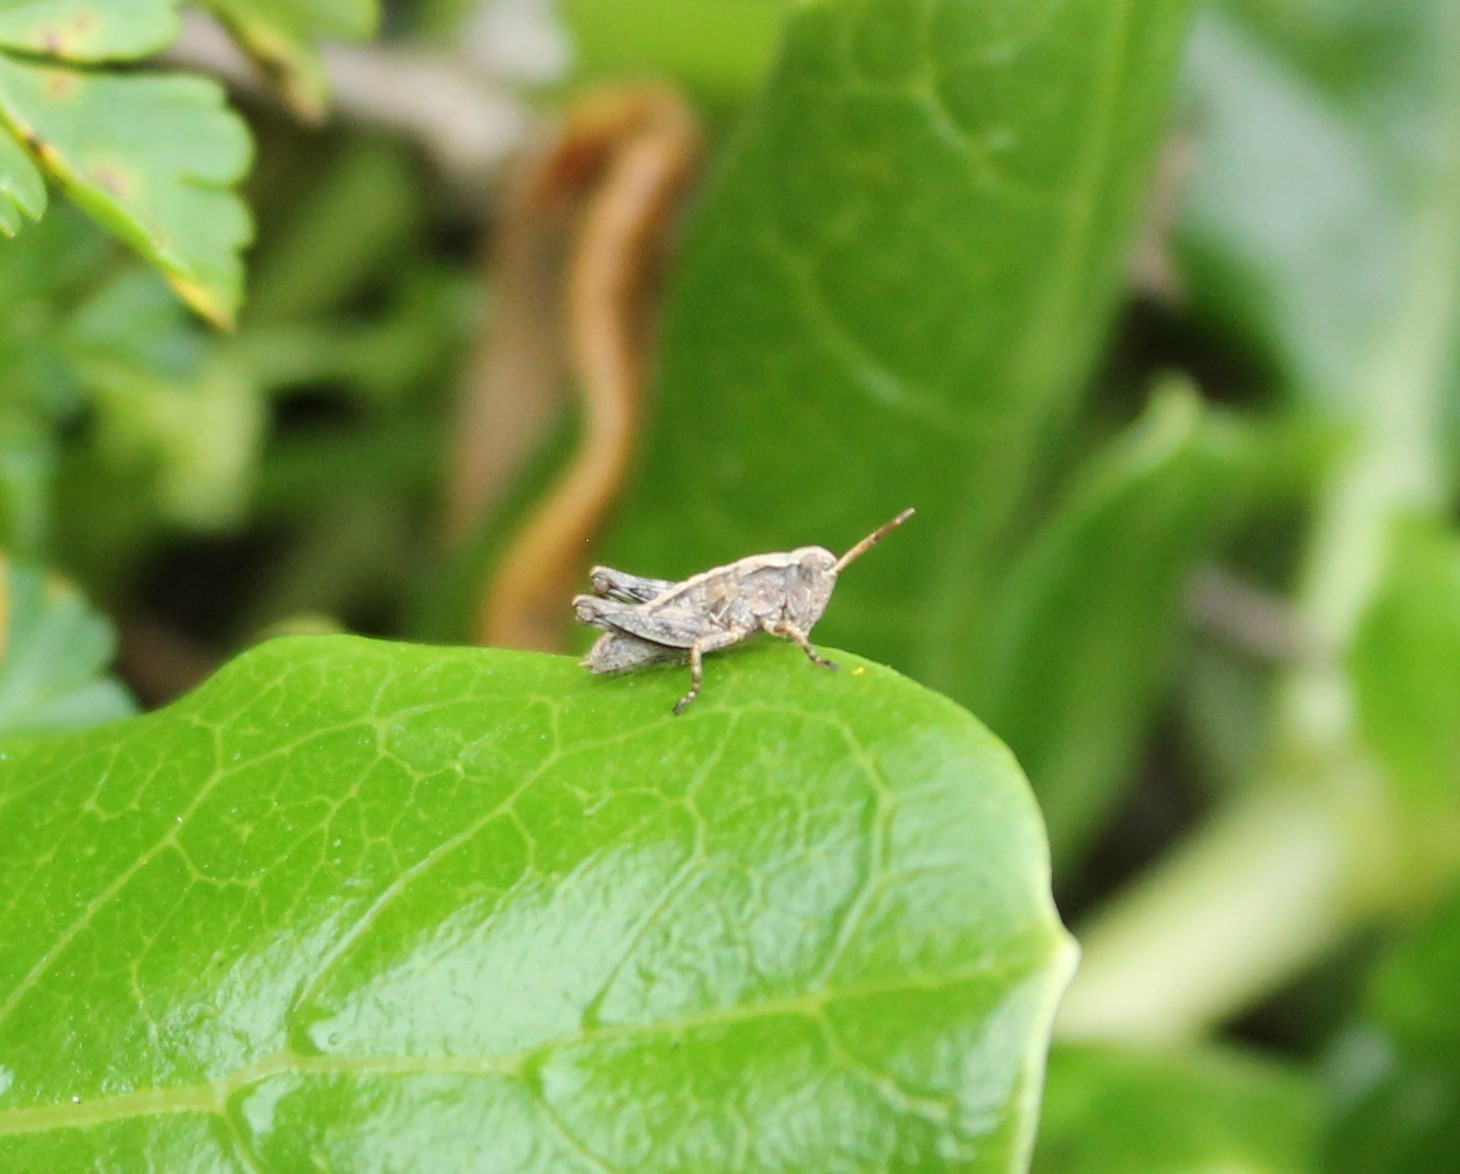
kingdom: Animalia
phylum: Arthropoda
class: Insecta
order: Orthoptera
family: Acrididae
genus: Phaulacridium
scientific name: Phaulacridium marginale
